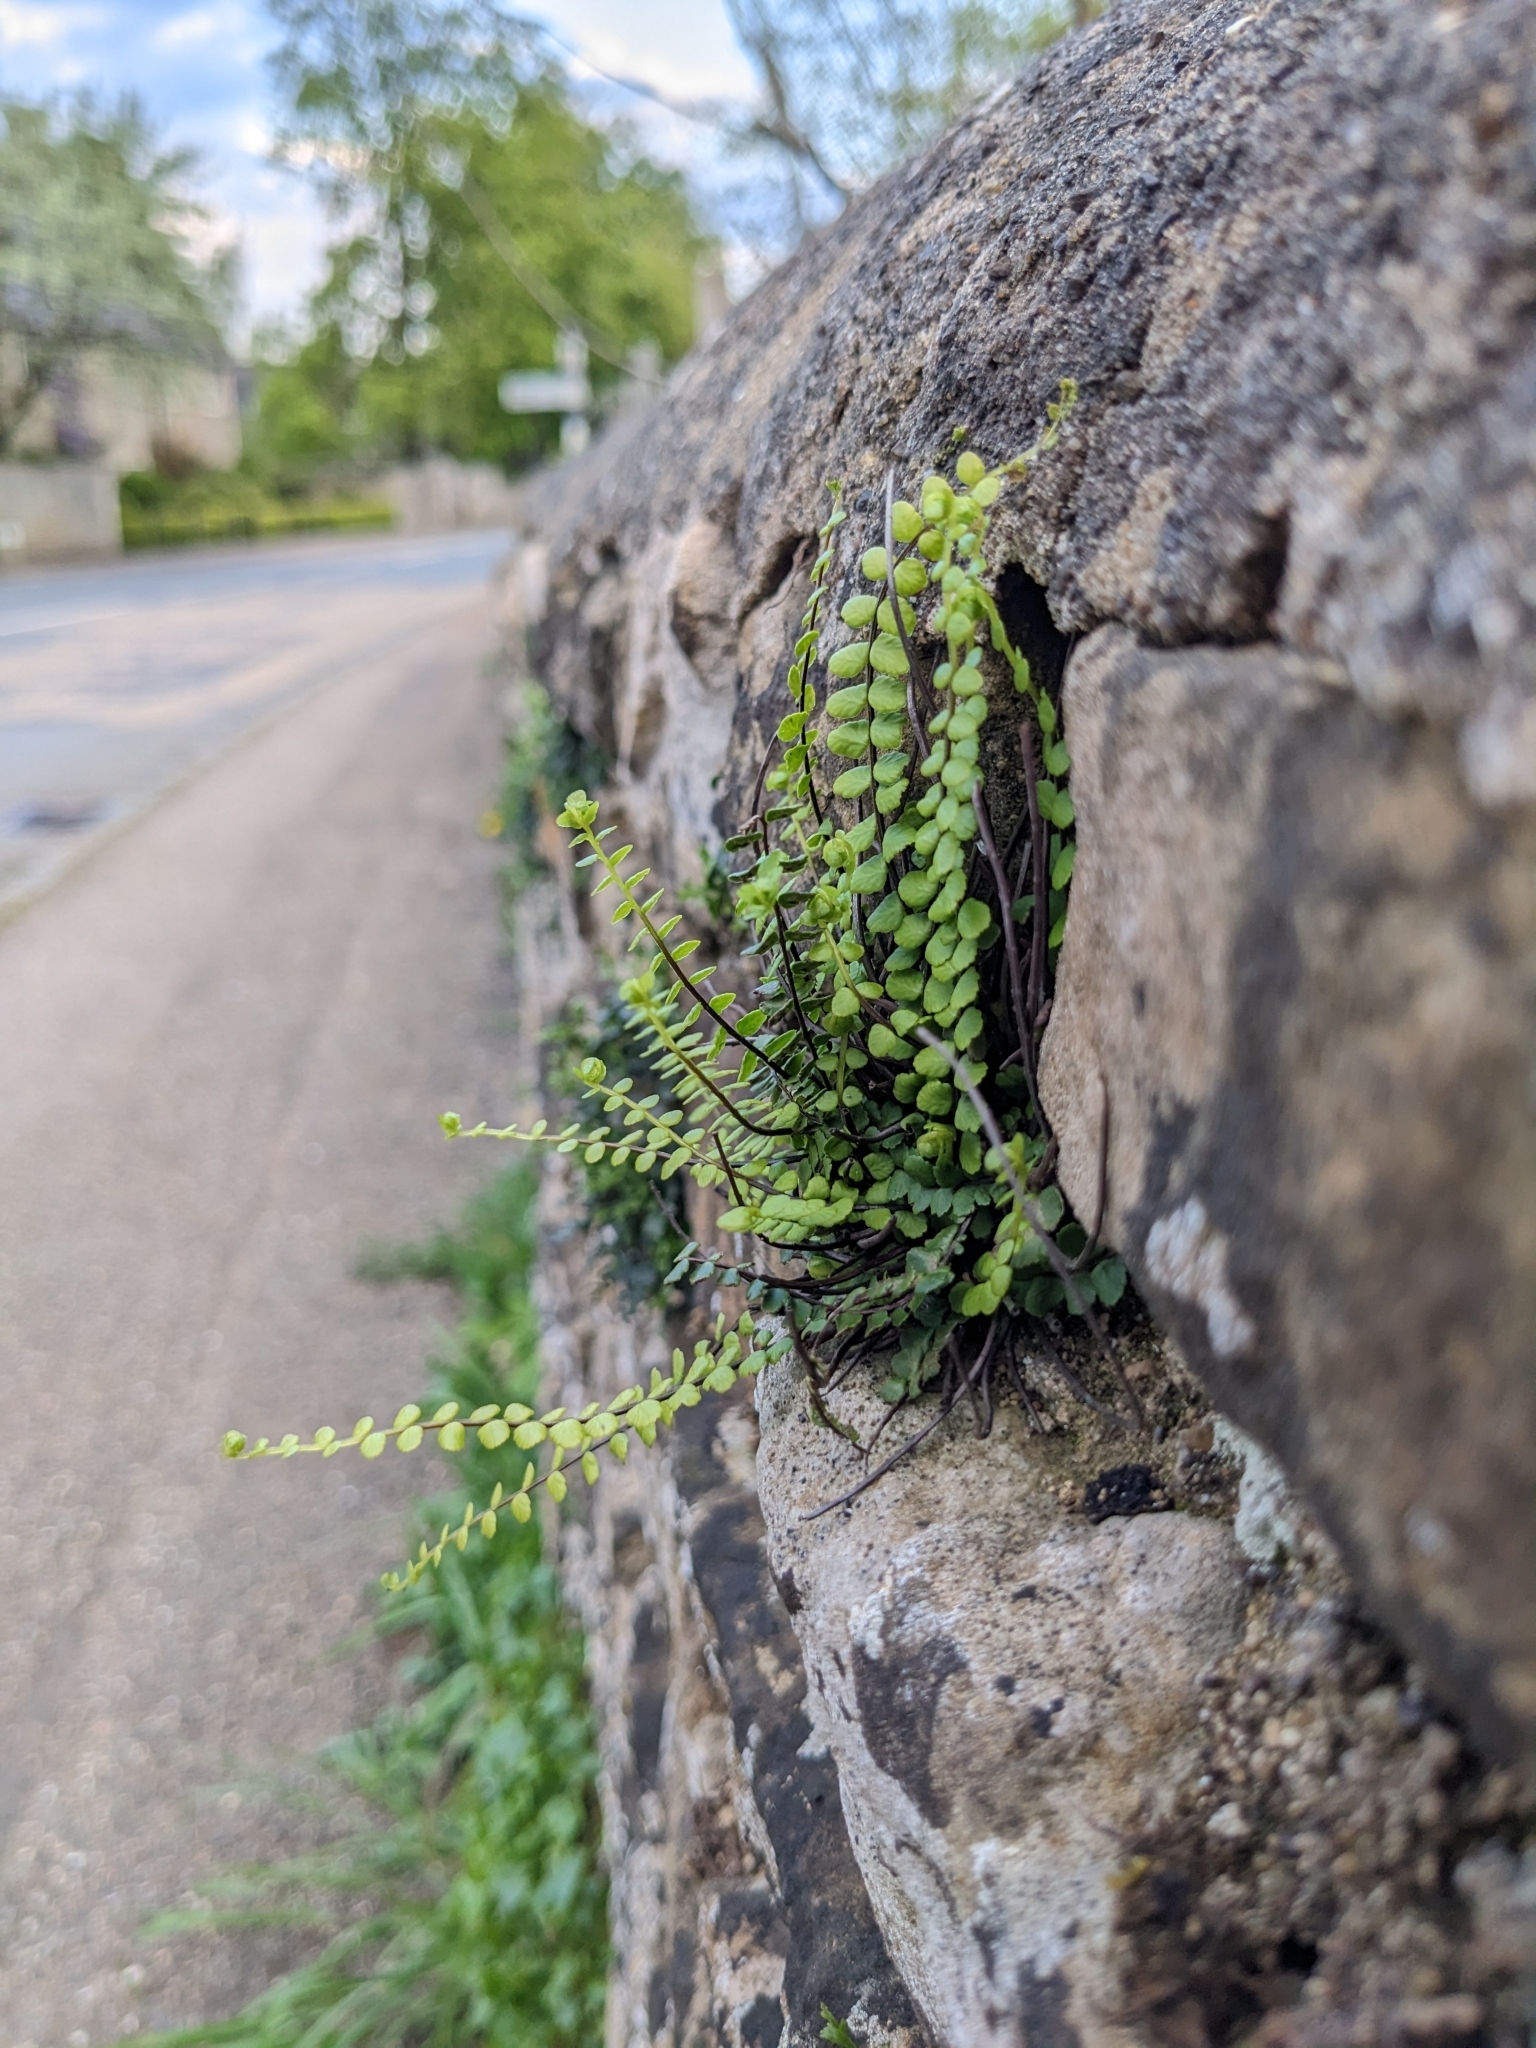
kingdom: Plantae
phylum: Tracheophyta
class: Polypodiopsida
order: Polypodiales
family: Aspleniaceae
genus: Asplenium
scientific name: Asplenium trichomanes
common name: Maidenhair spleenwort
